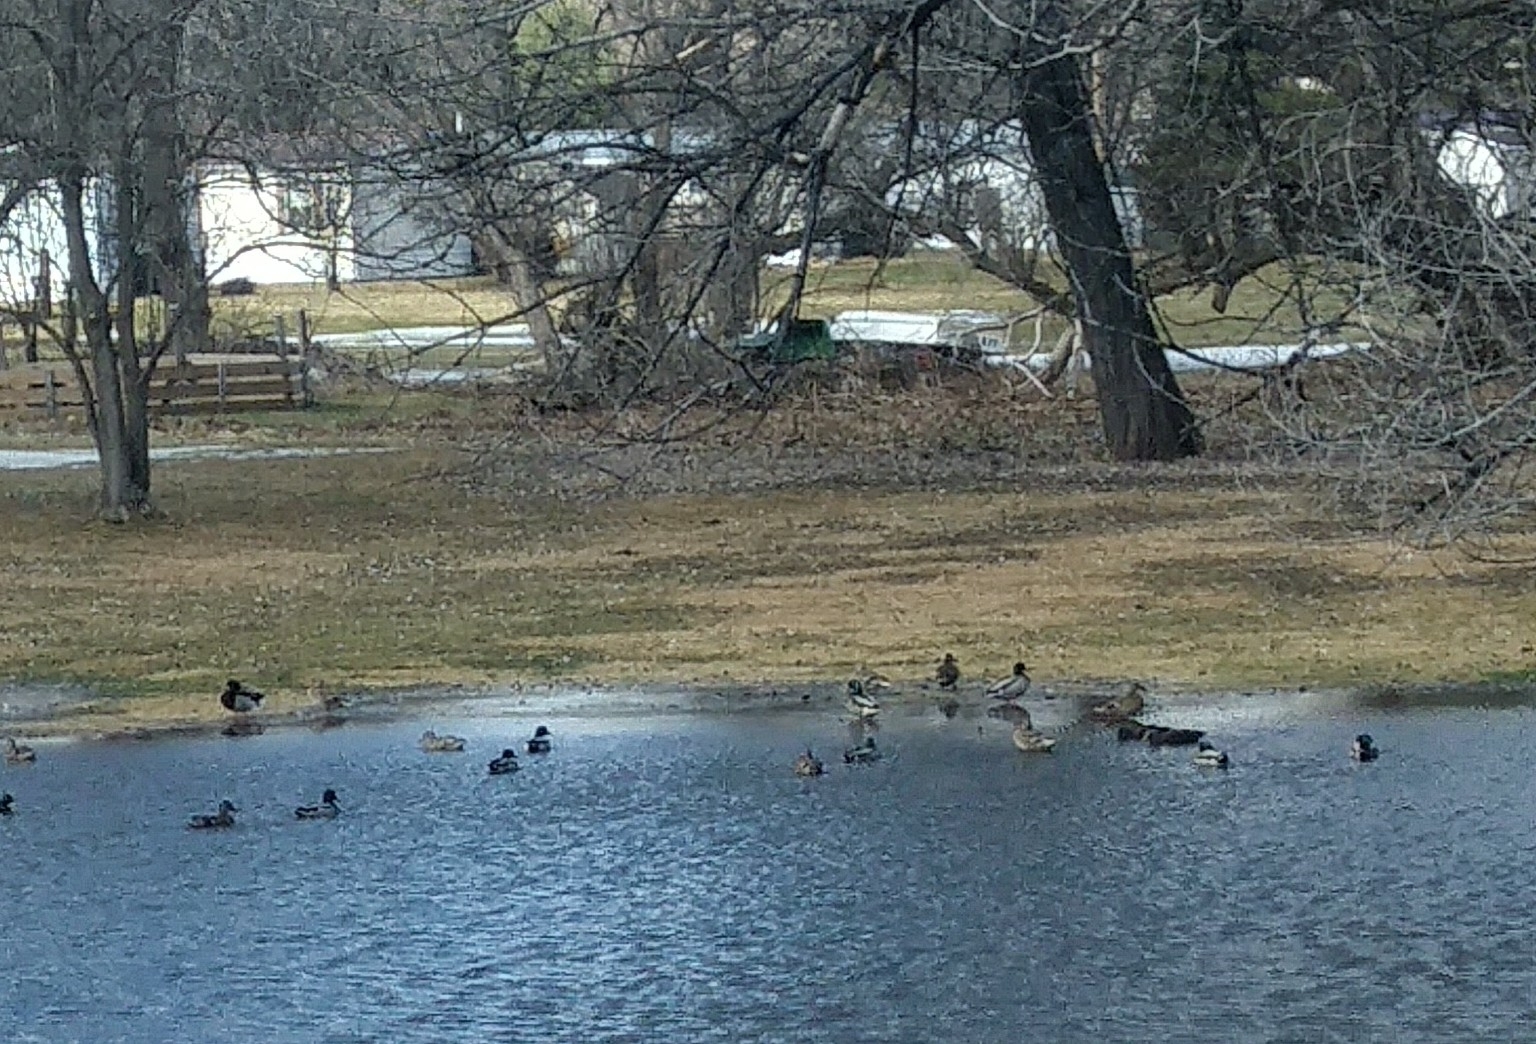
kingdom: Animalia
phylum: Chordata
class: Aves
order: Anseriformes
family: Anatidae
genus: Anas
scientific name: Anas platyrhynchos
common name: Mallard
